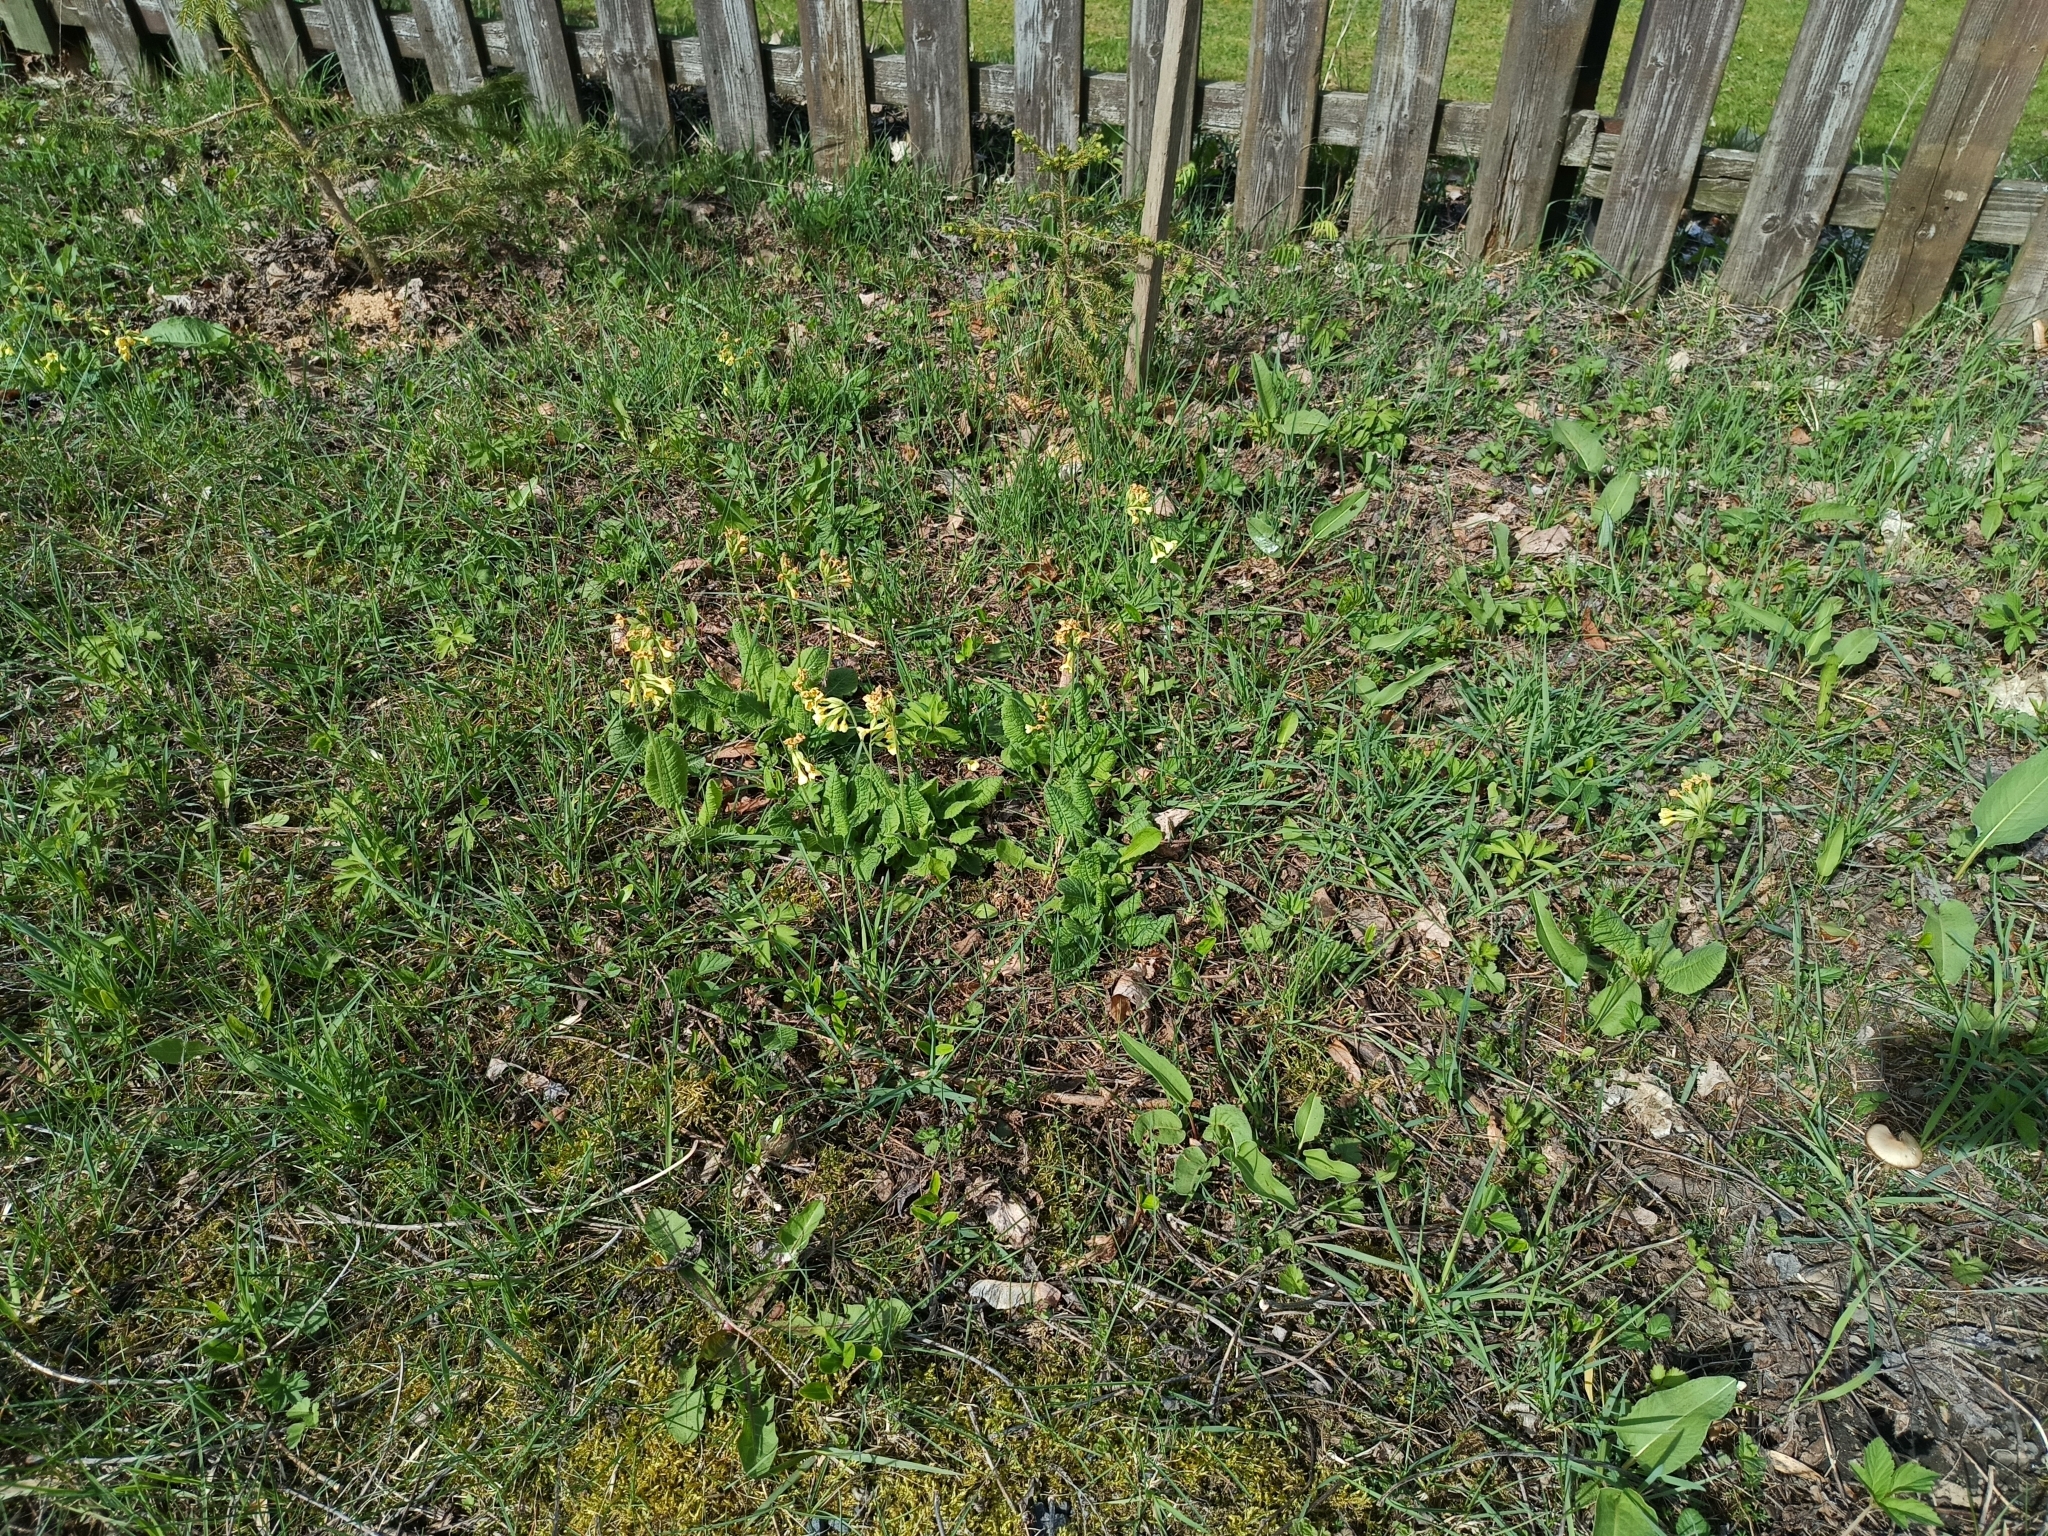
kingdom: Plantae
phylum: Tracheophyta
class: Magnoliopsida
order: Ericales
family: Primulaceae
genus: Primula
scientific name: Primula elatior
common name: Oxlip
